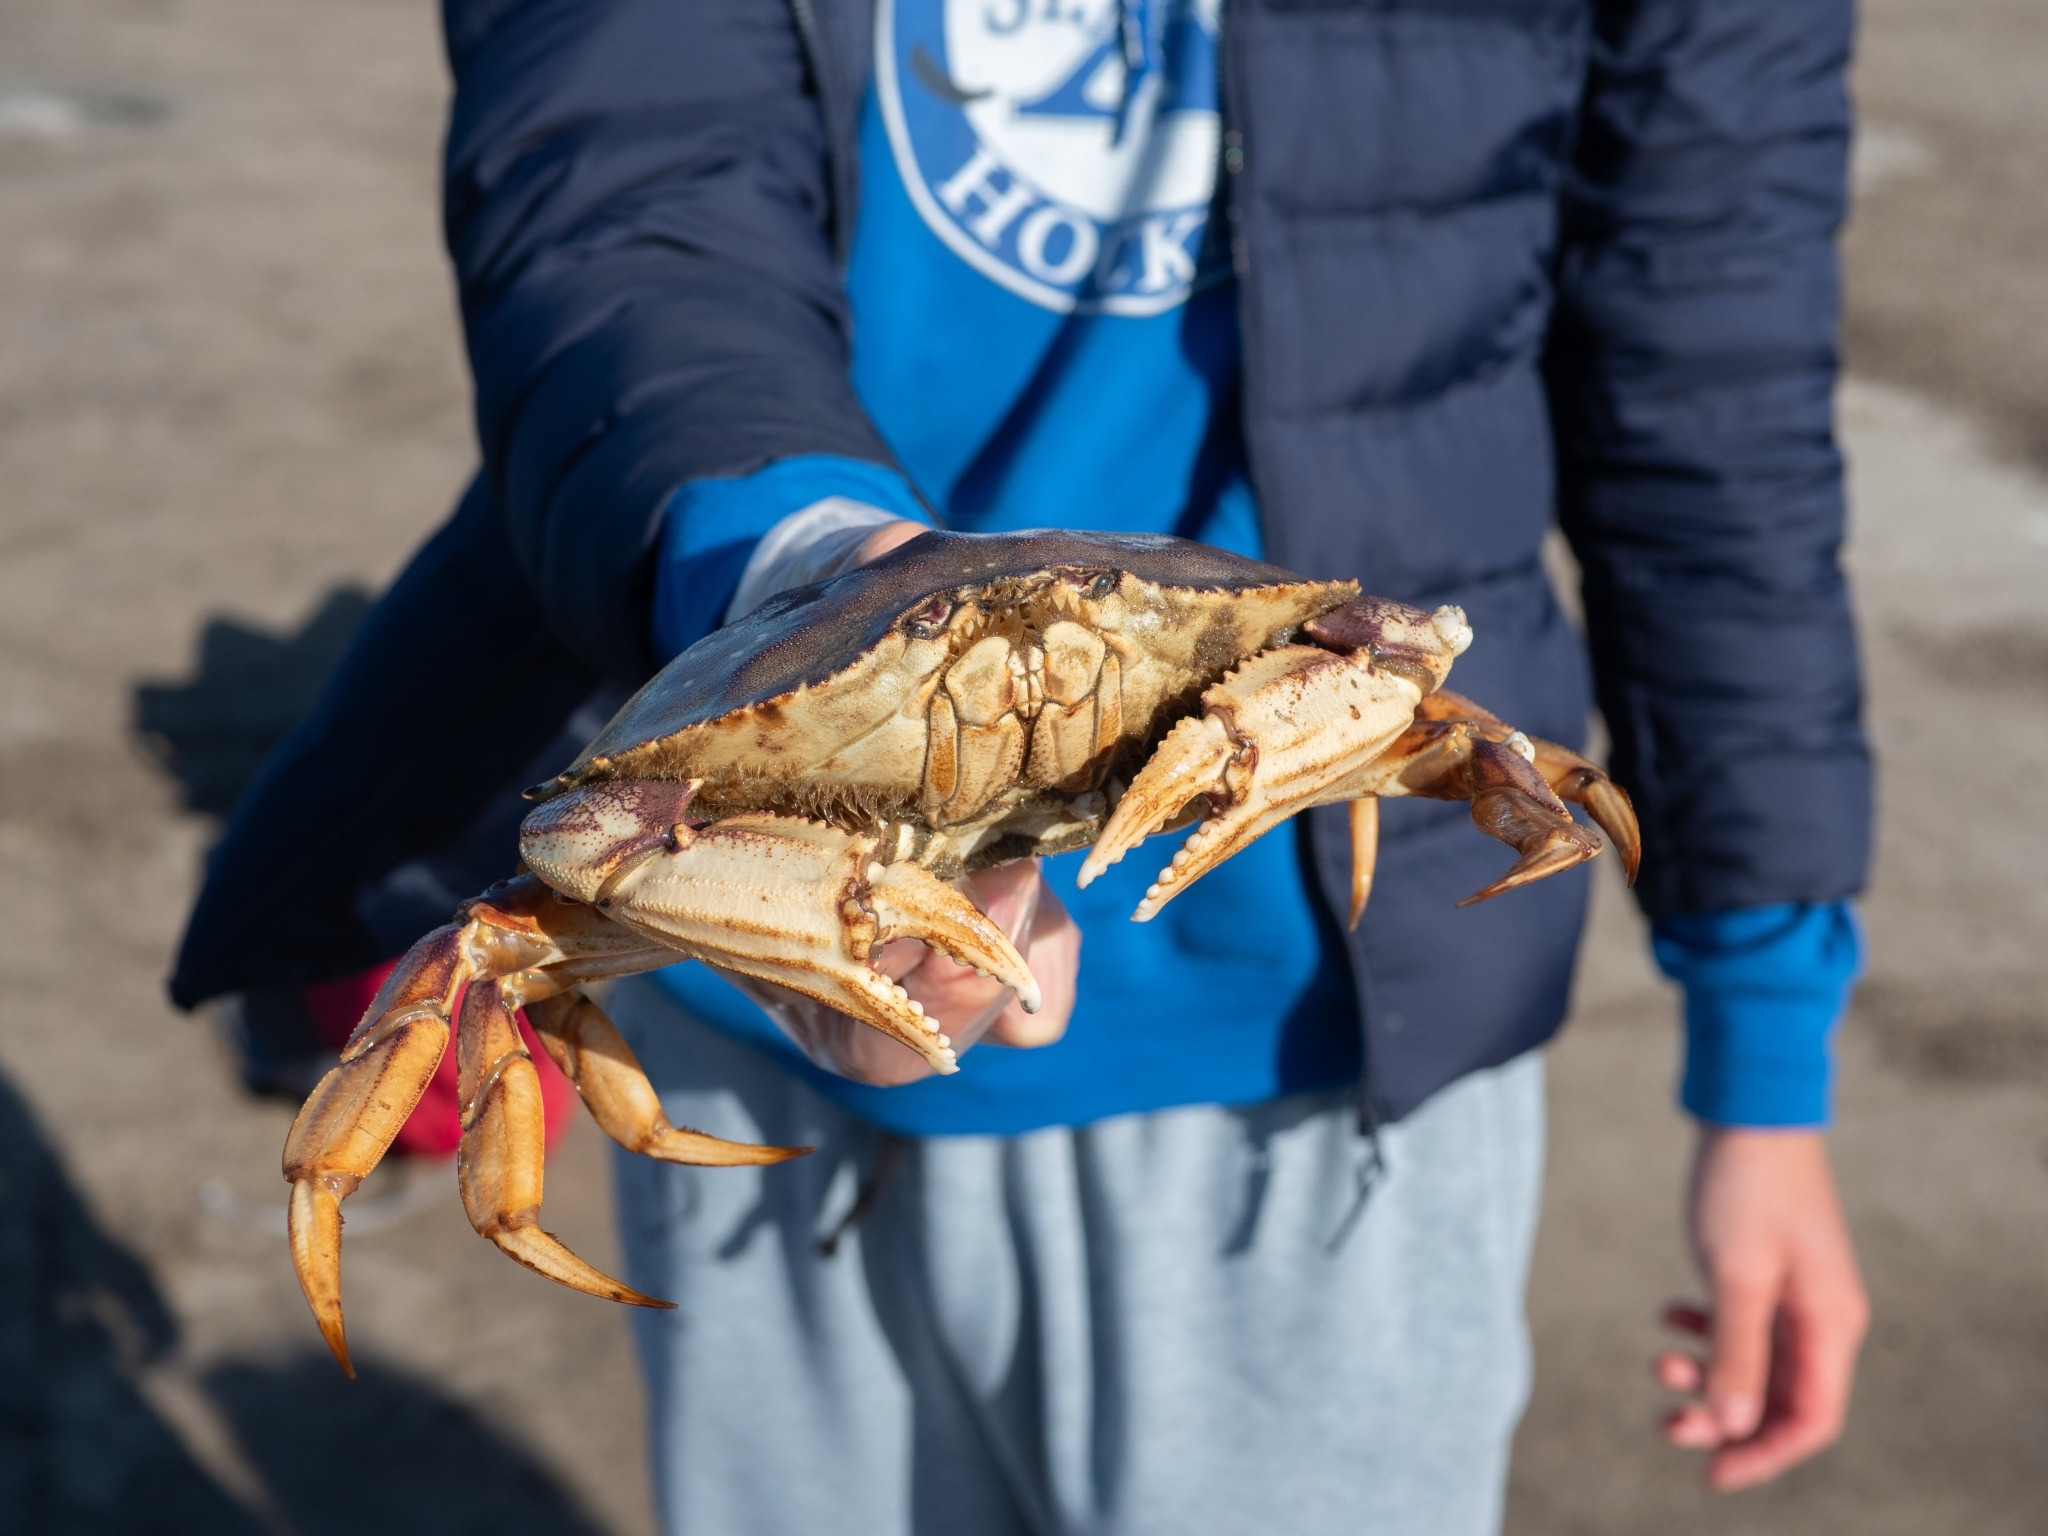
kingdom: Animalia
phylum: Arthropoda
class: Malacostraca
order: Decapoda
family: Cancridae
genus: Metacarcinus
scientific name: Metacarcinus magister
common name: Californian crab
